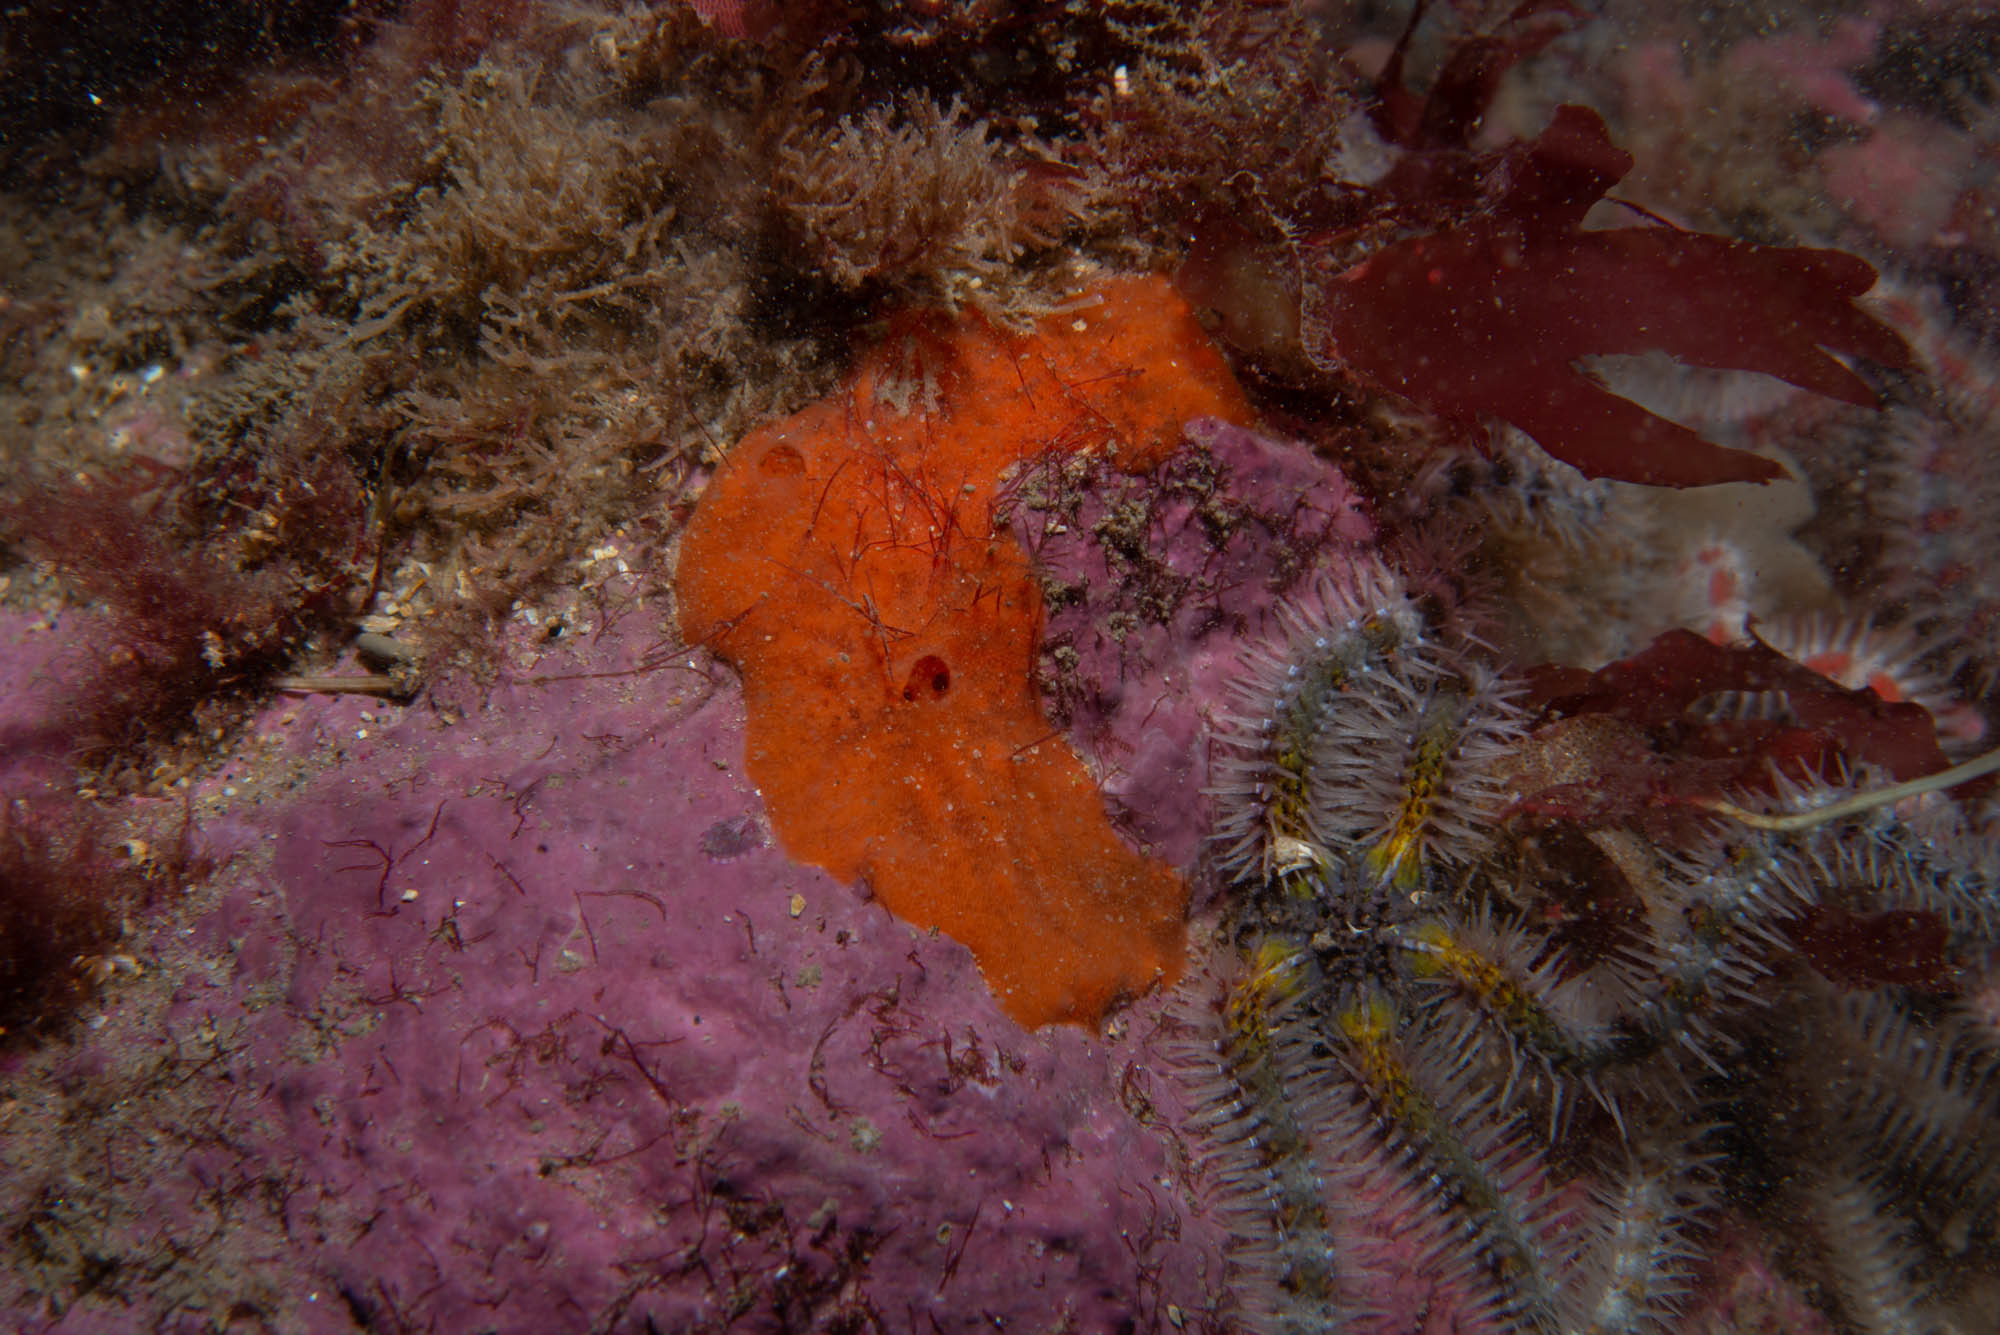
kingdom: Animalia
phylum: Porifera
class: Demospongiae
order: Poecilosclerida
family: Mycalidae
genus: Mycale
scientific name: Mycale rotalis
